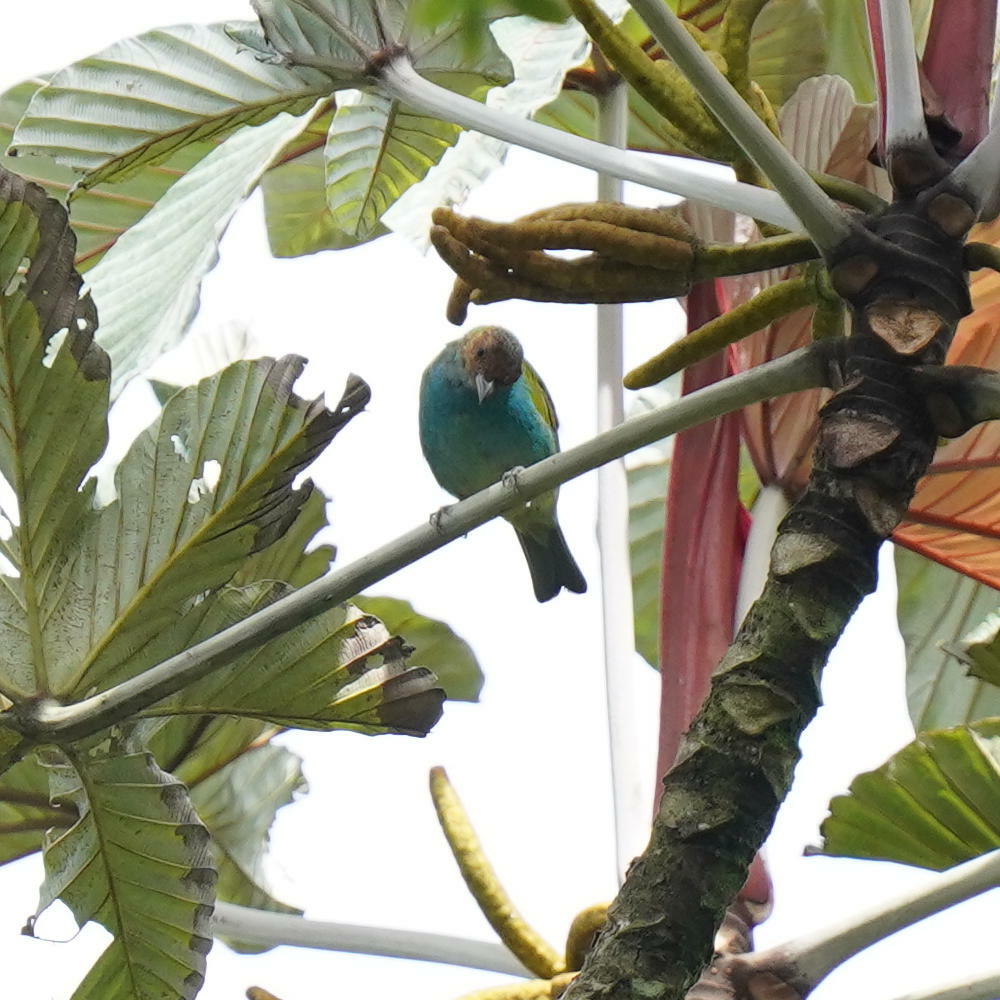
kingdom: Animalia
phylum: Chordata
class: Aves
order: Passeriformes
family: Thraupidae
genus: Tangara
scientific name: Tangara gyrola
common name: Bay-headed tanager
